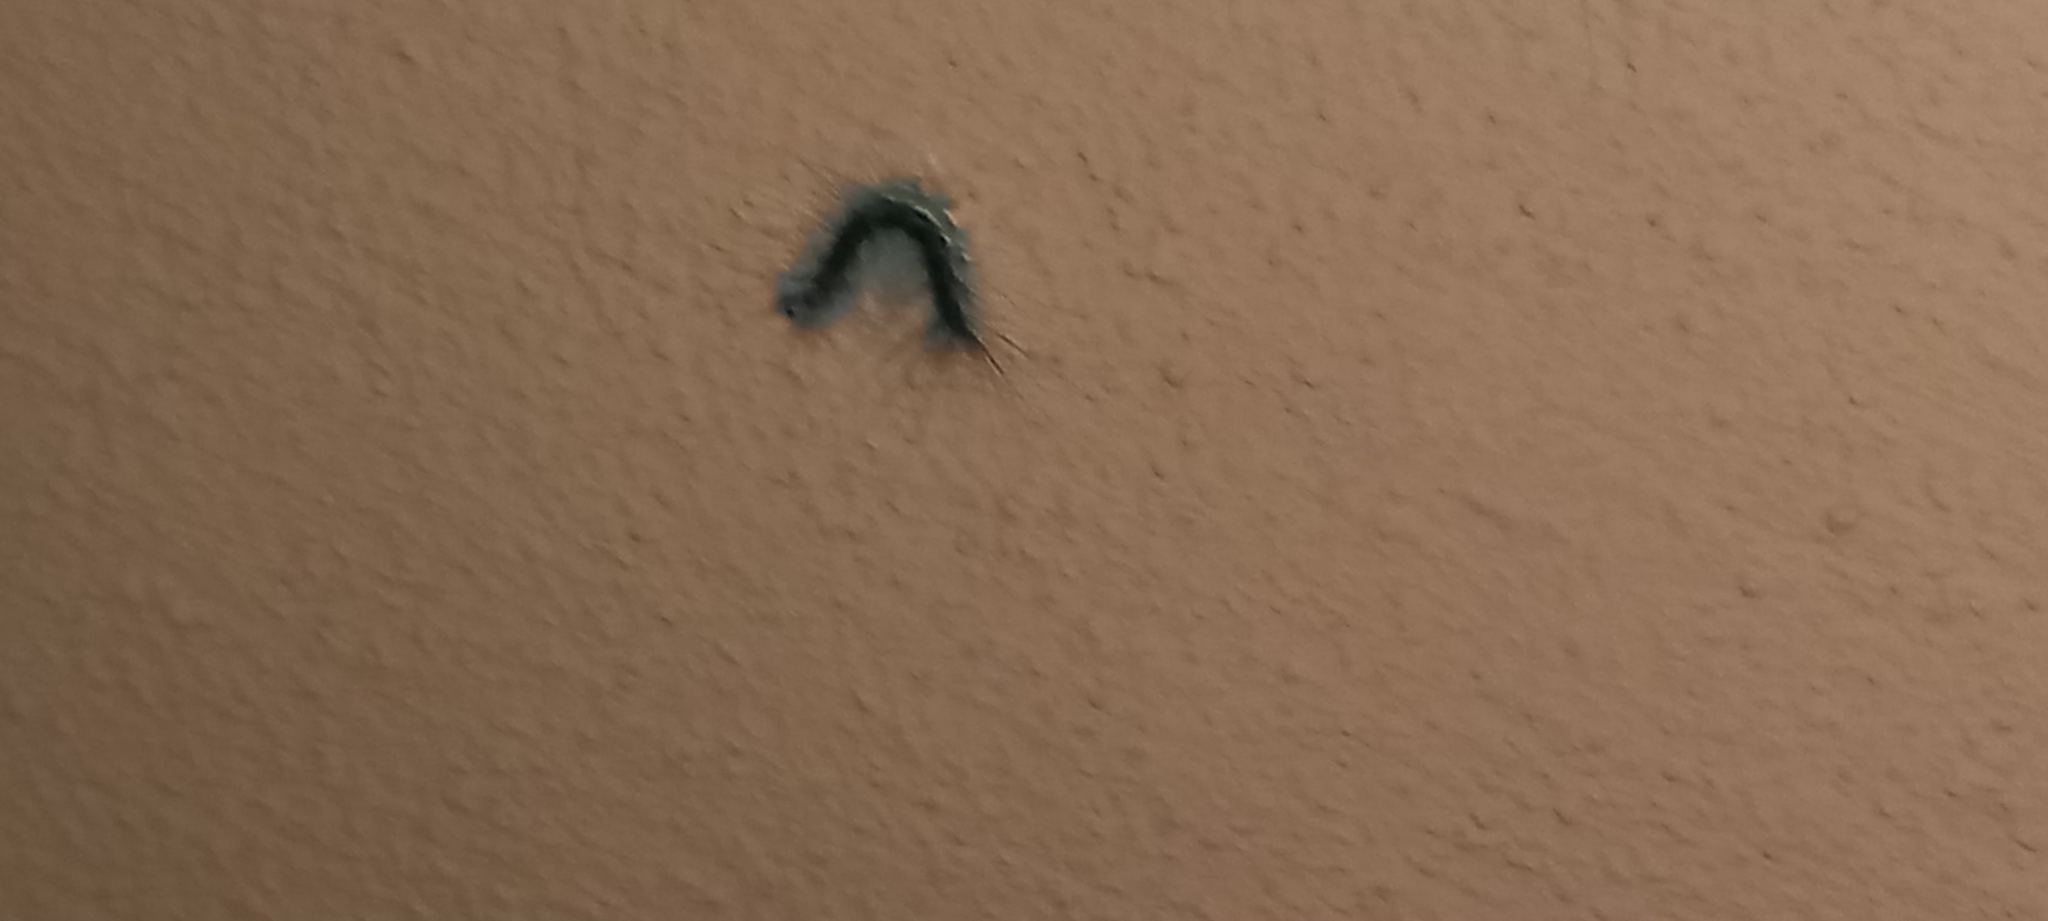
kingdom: Animalia
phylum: Arthropoda
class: Insecta
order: Lepidoptera
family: Erebidae
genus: Hyphantria
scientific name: Hyphantria cunea
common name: American white moth
